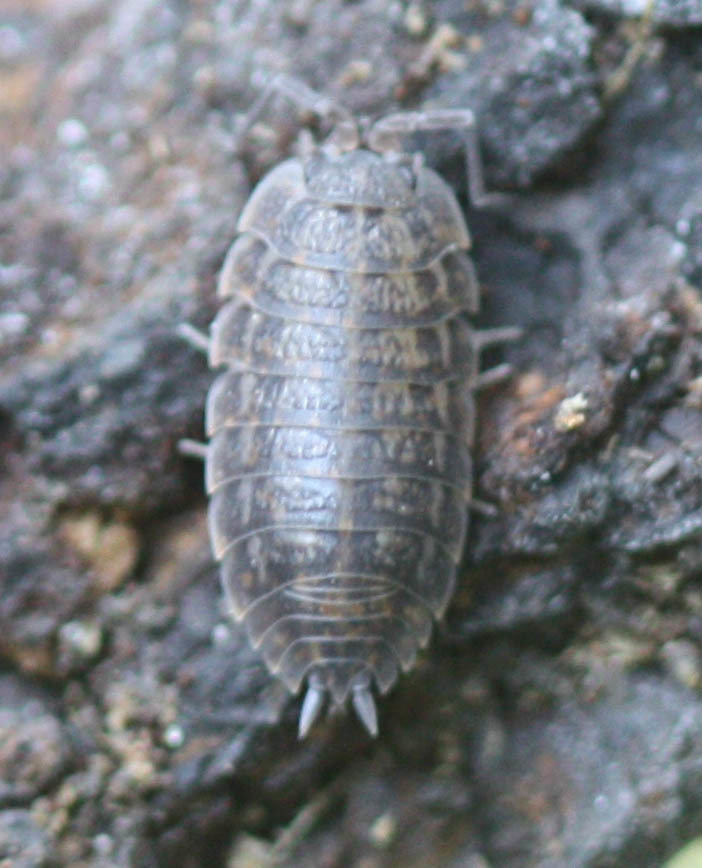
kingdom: Animalia
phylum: Arthropoda
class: Malacostraca
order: Isopoda
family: Trachelipodidae
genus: Trachelipus
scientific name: Trachelipus rathkii
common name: Isopod
